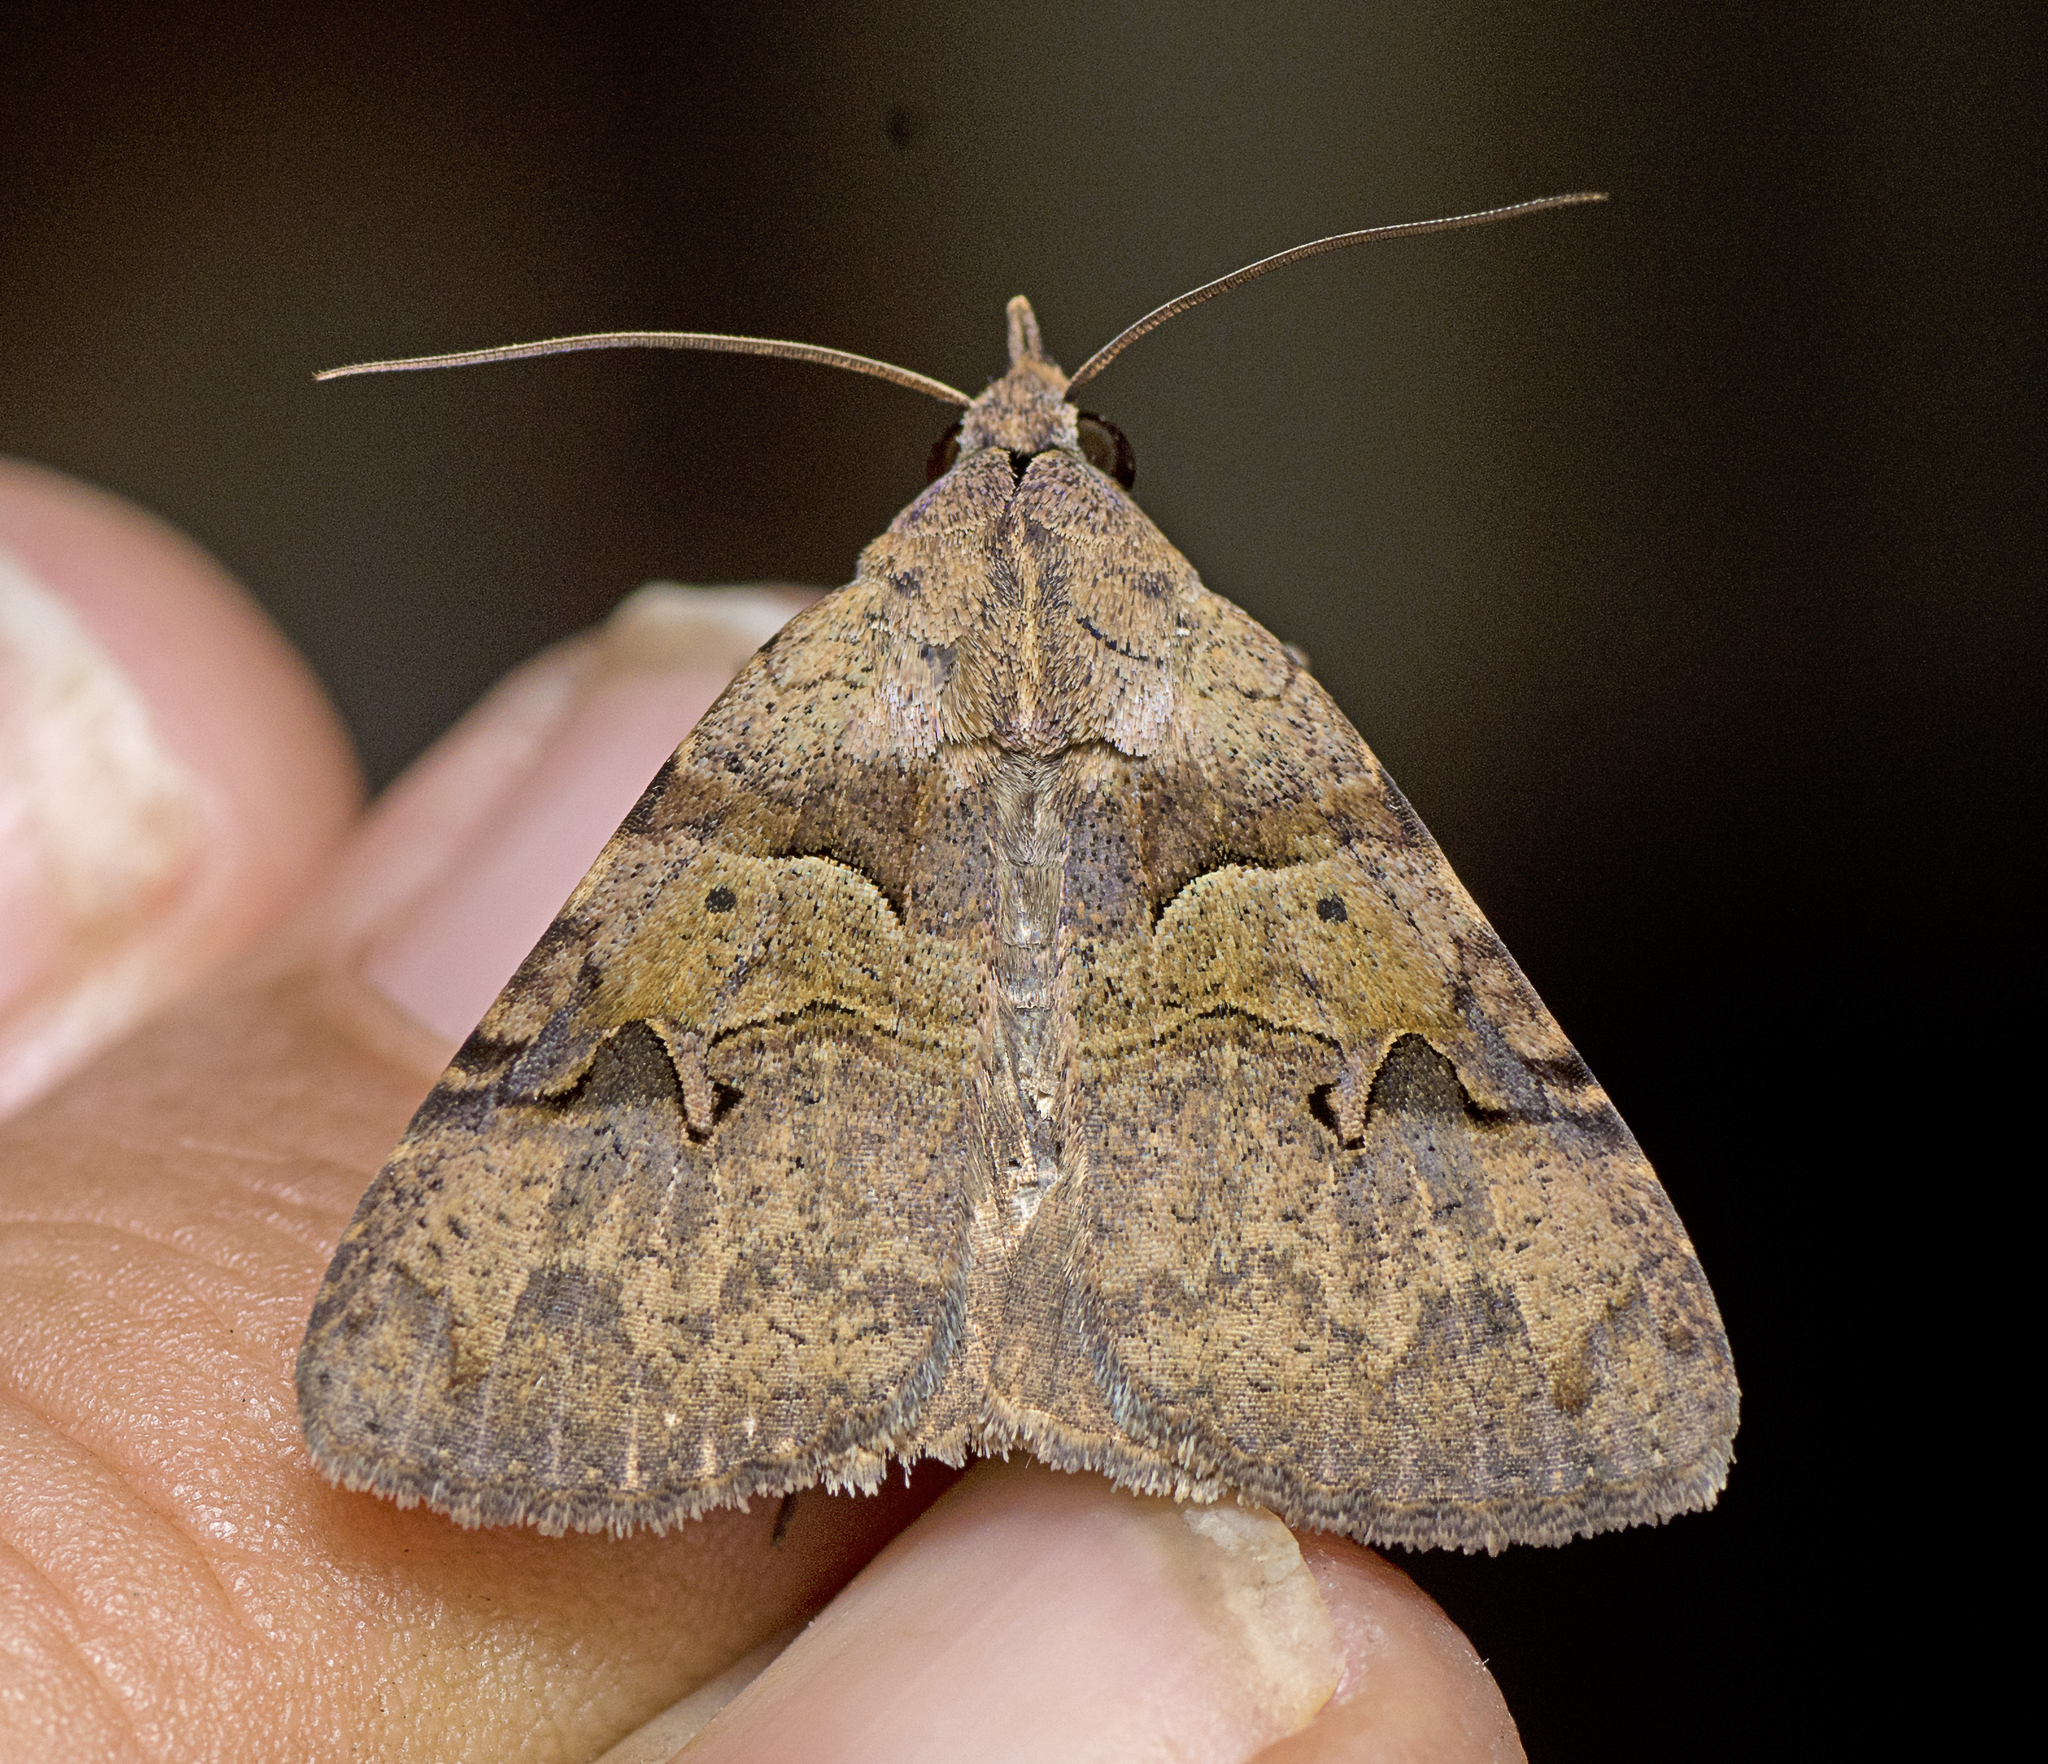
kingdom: Animalia
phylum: Arthropoda
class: Insecta
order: Lepidoptera
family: Erebidae
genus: Avatha
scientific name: Avatha discolor
